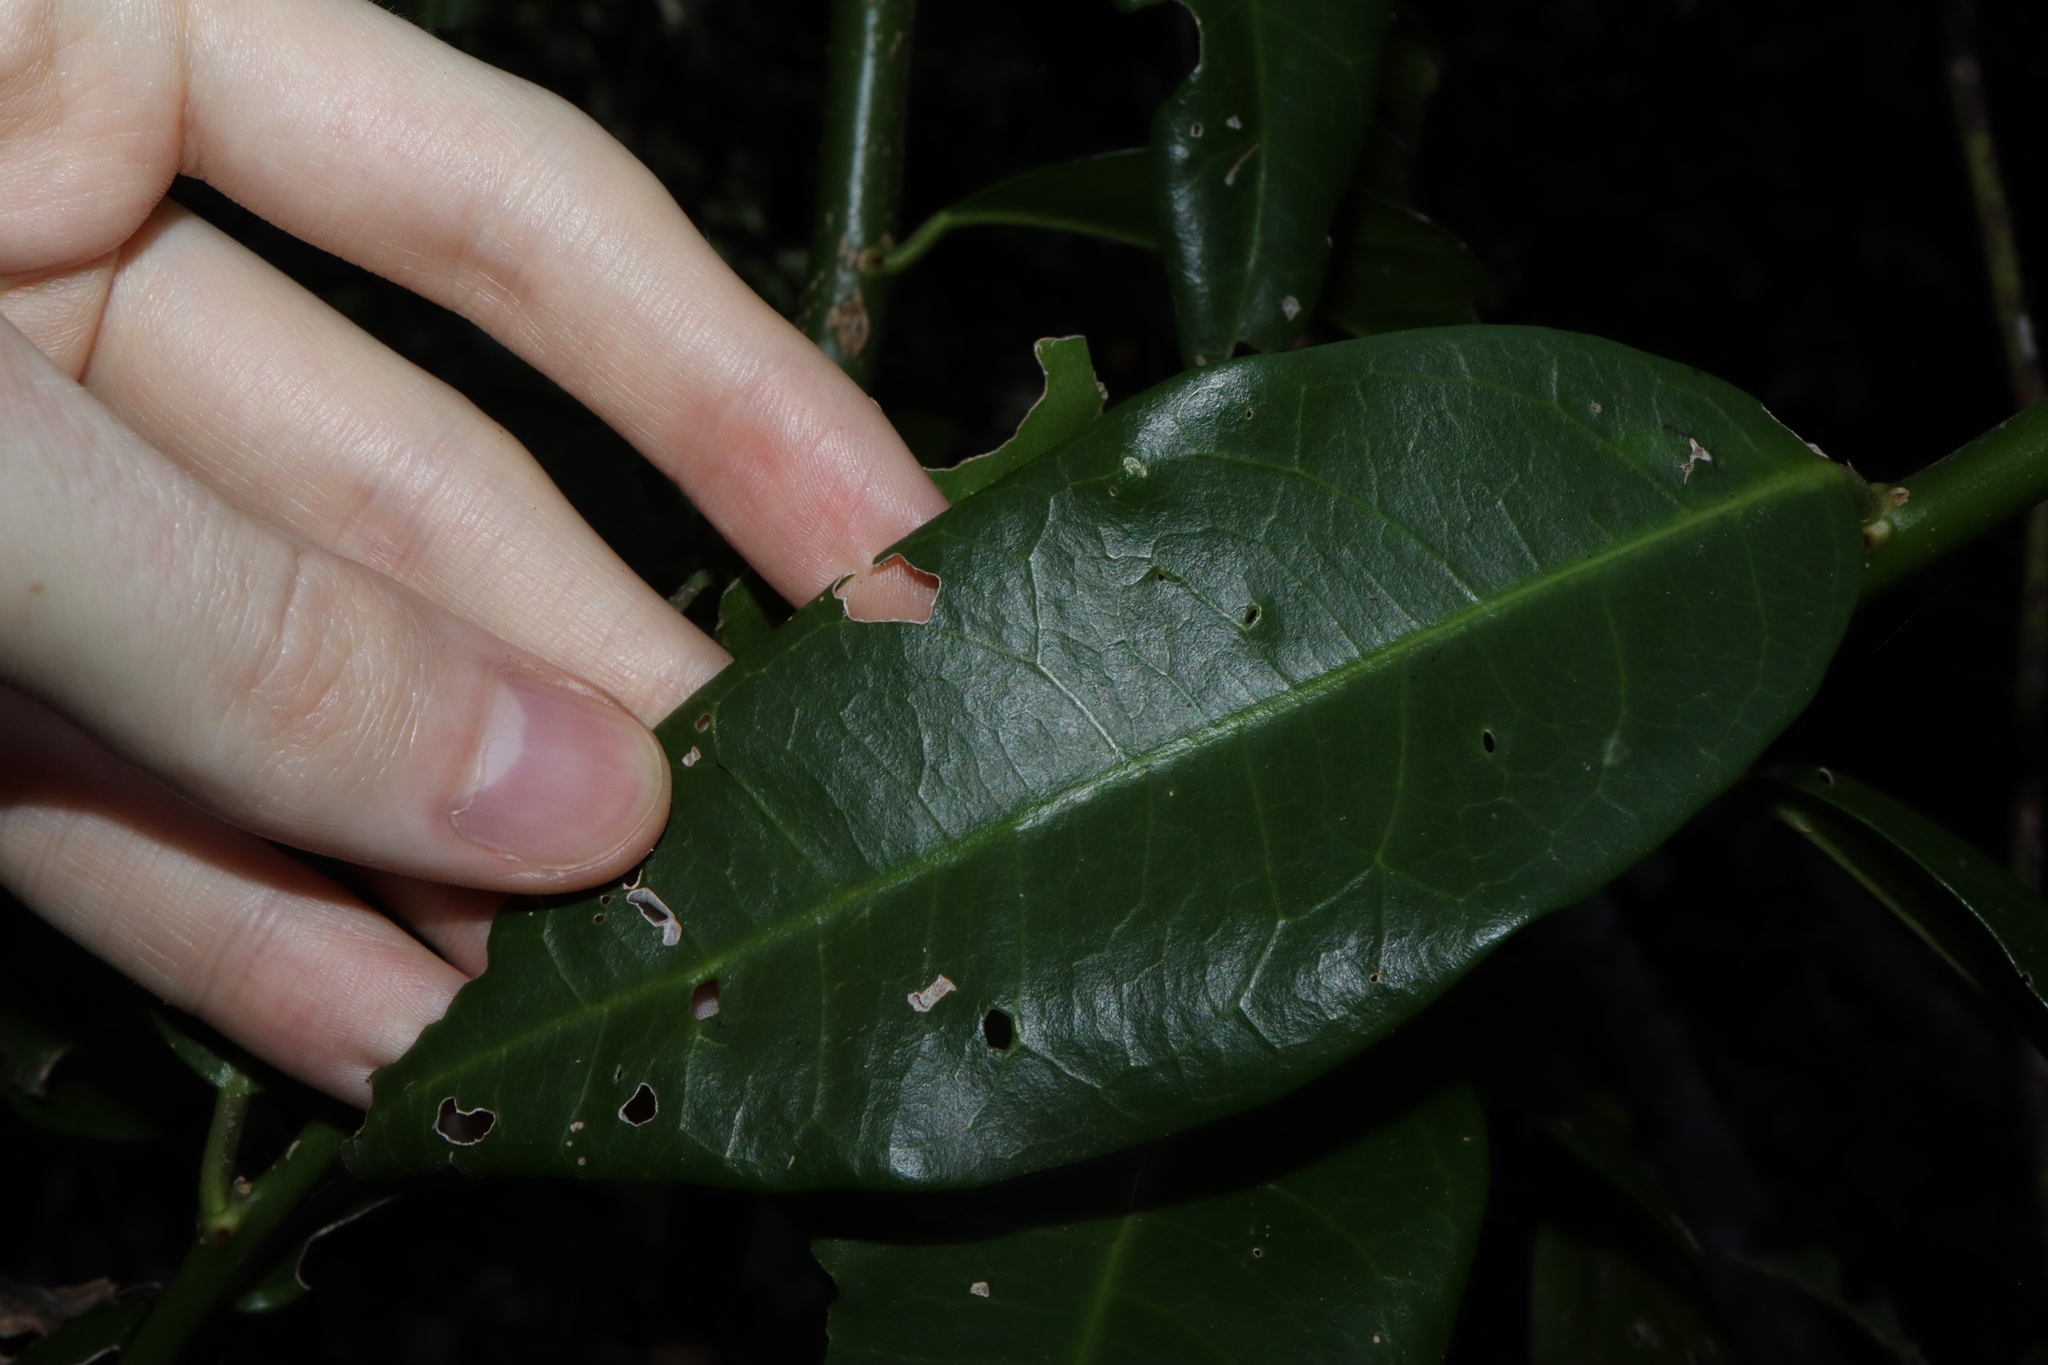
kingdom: Plantae
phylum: Tracheophyta
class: Magnoliopsida
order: Brassicales
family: Capparaceae
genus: Capparis
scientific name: Capparis arborea
